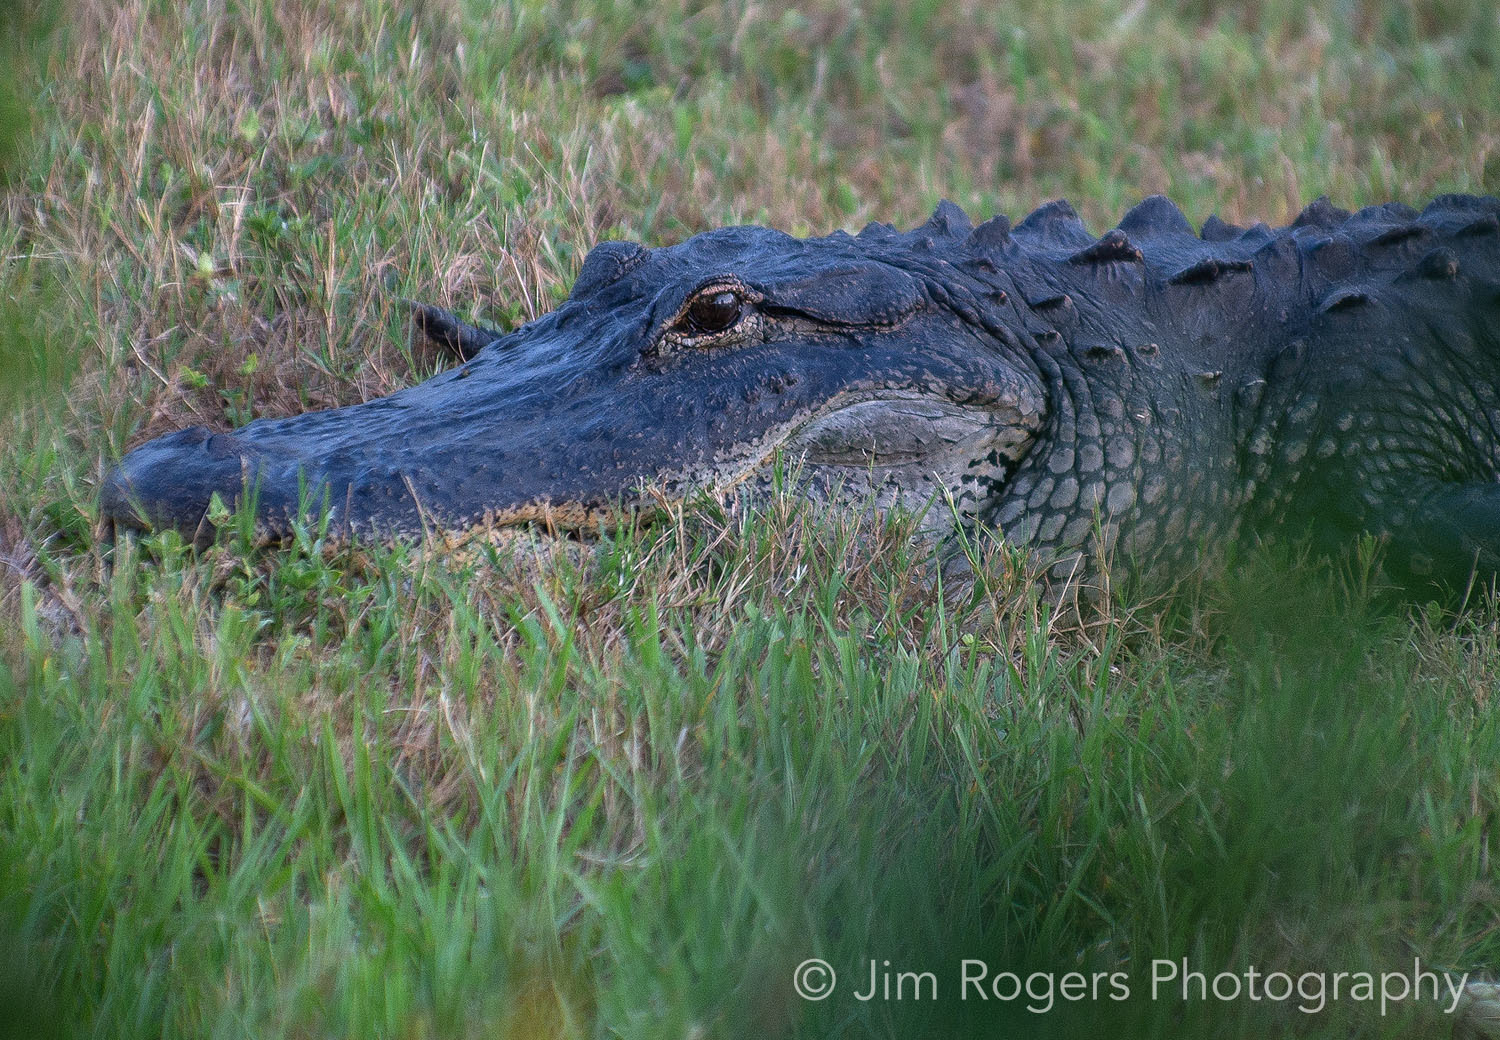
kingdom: Animalia
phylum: Chordata
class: Crocodylia
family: Alligatoridae
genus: Alligator
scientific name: Alligator mississippiensis
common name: American alligator
